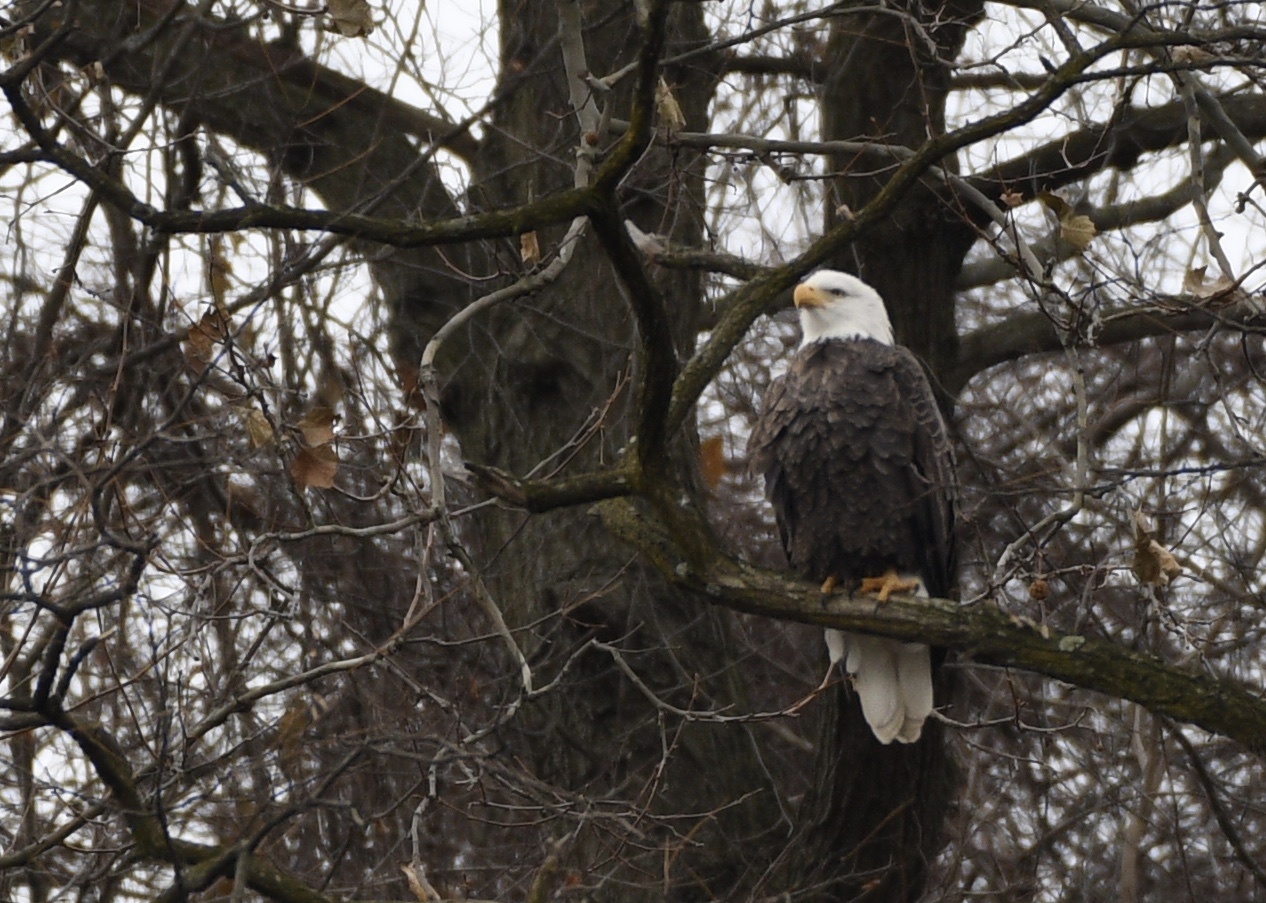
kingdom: Animalia
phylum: Chordata
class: Aves
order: Accipitriformes
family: Accipitridae
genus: Haliaeetus
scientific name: Haliaeetus leucocephalus
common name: Bald eagle
